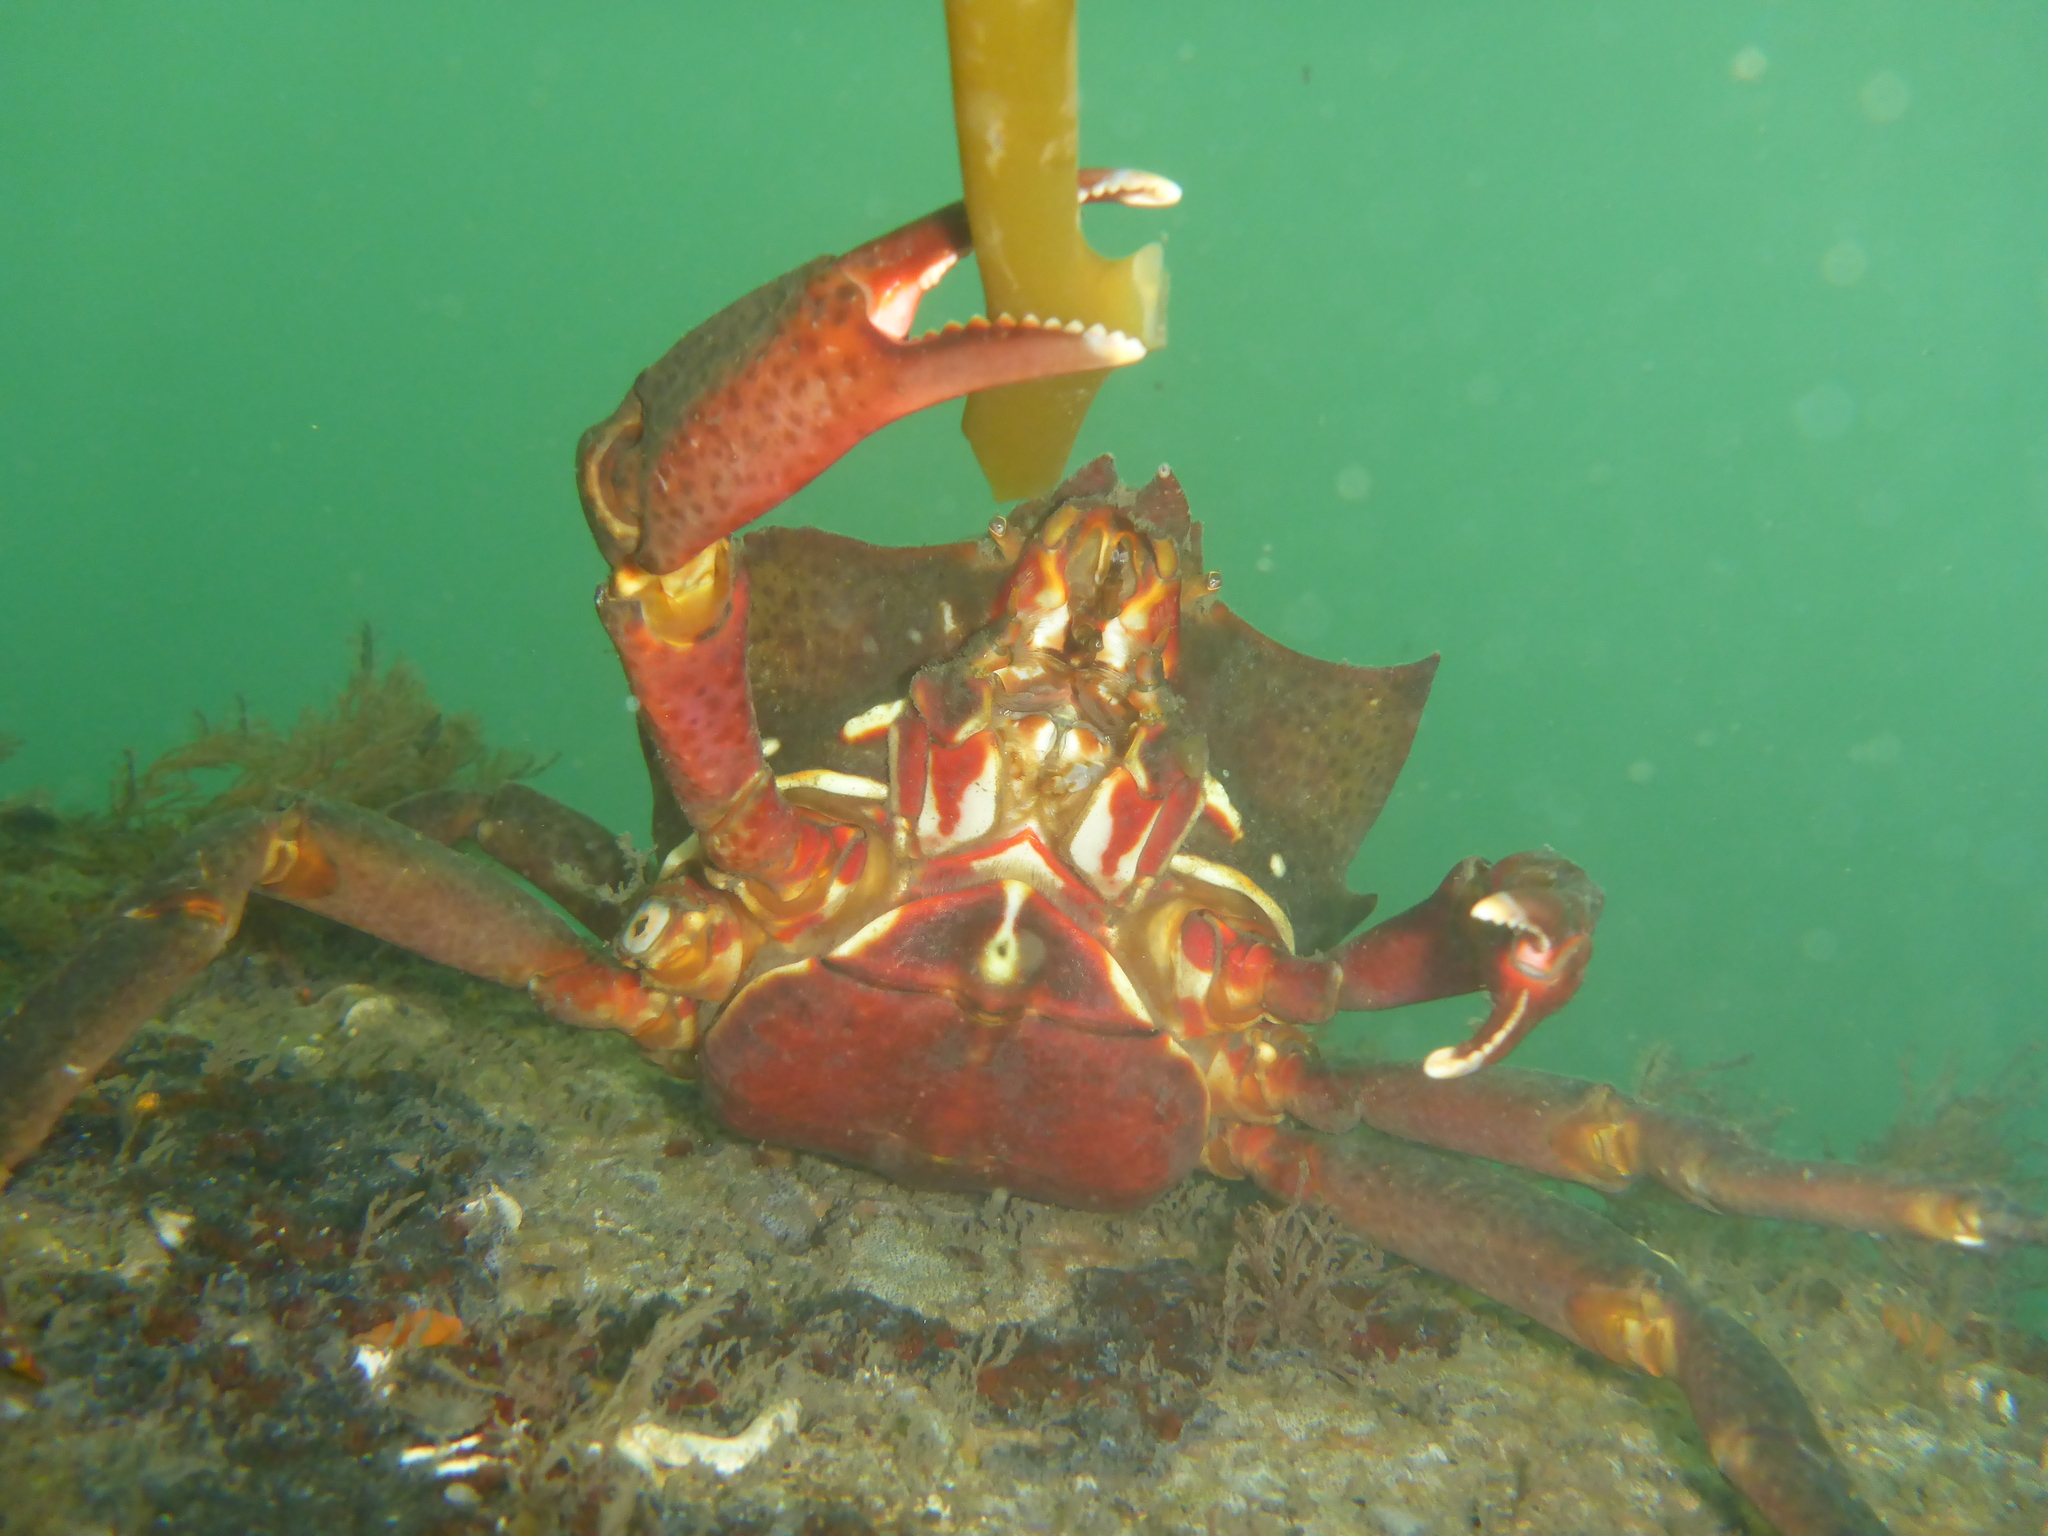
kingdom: Animalia
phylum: Arthropoda
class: Malacostraca
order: Decapoda
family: Epialtidae
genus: Pugettia
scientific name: Pugettia producta
